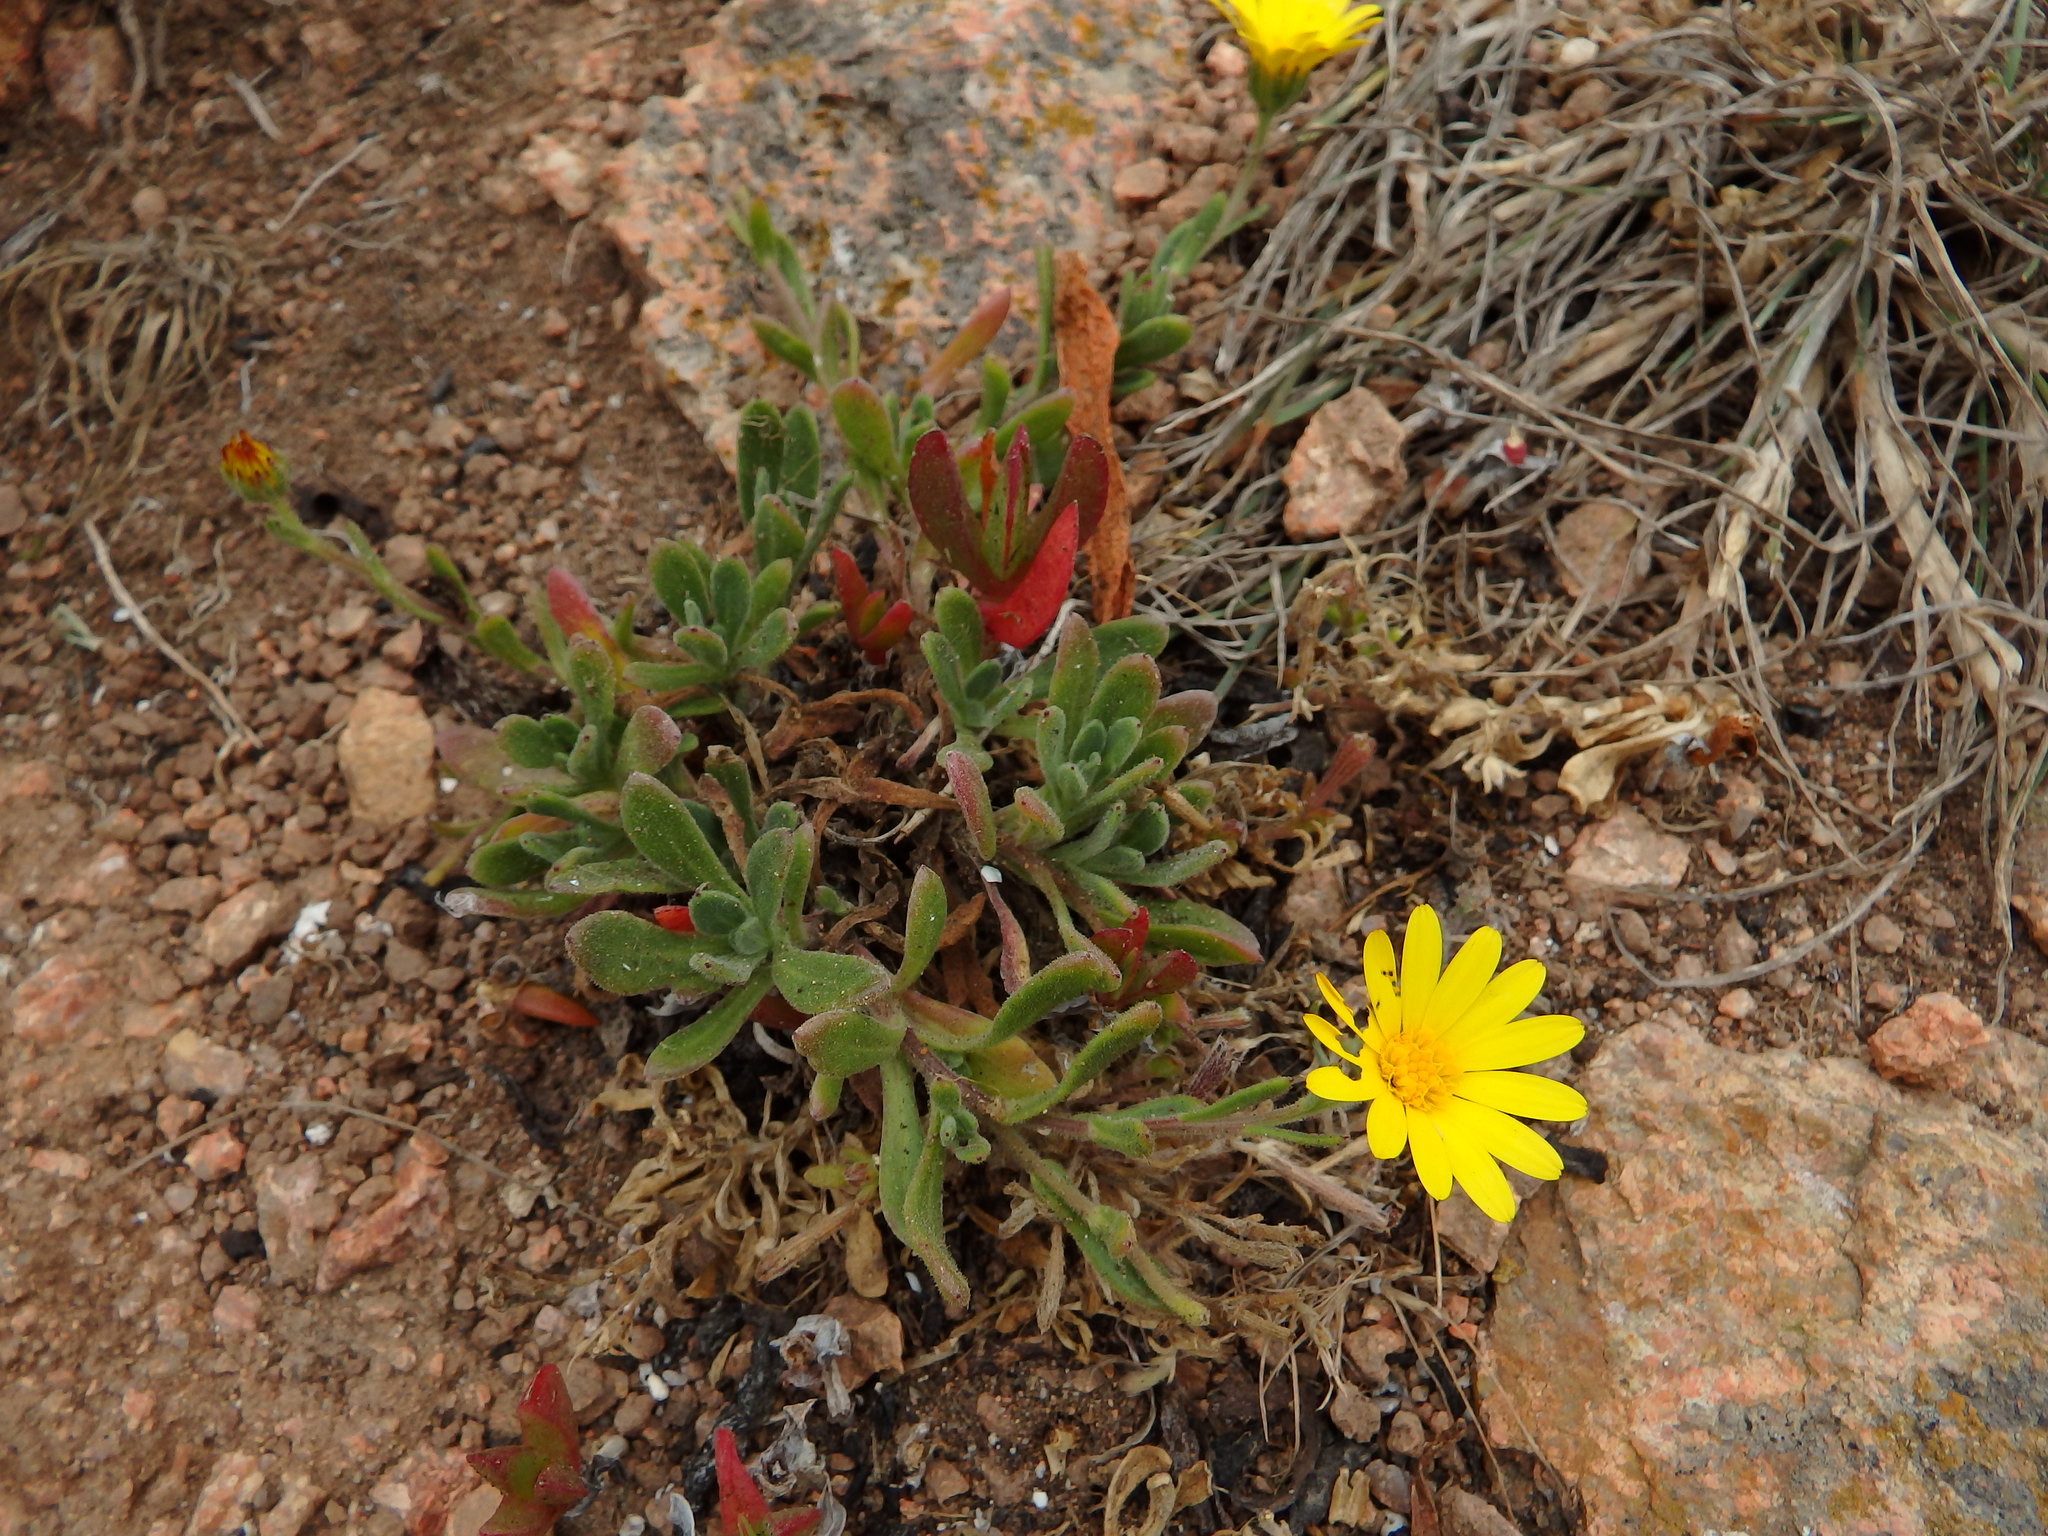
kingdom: Plantae
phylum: Tracheophyta
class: Magnoliopsida
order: Asterales
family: Asteraceae
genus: Calendula
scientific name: Calendula suffruticosa
